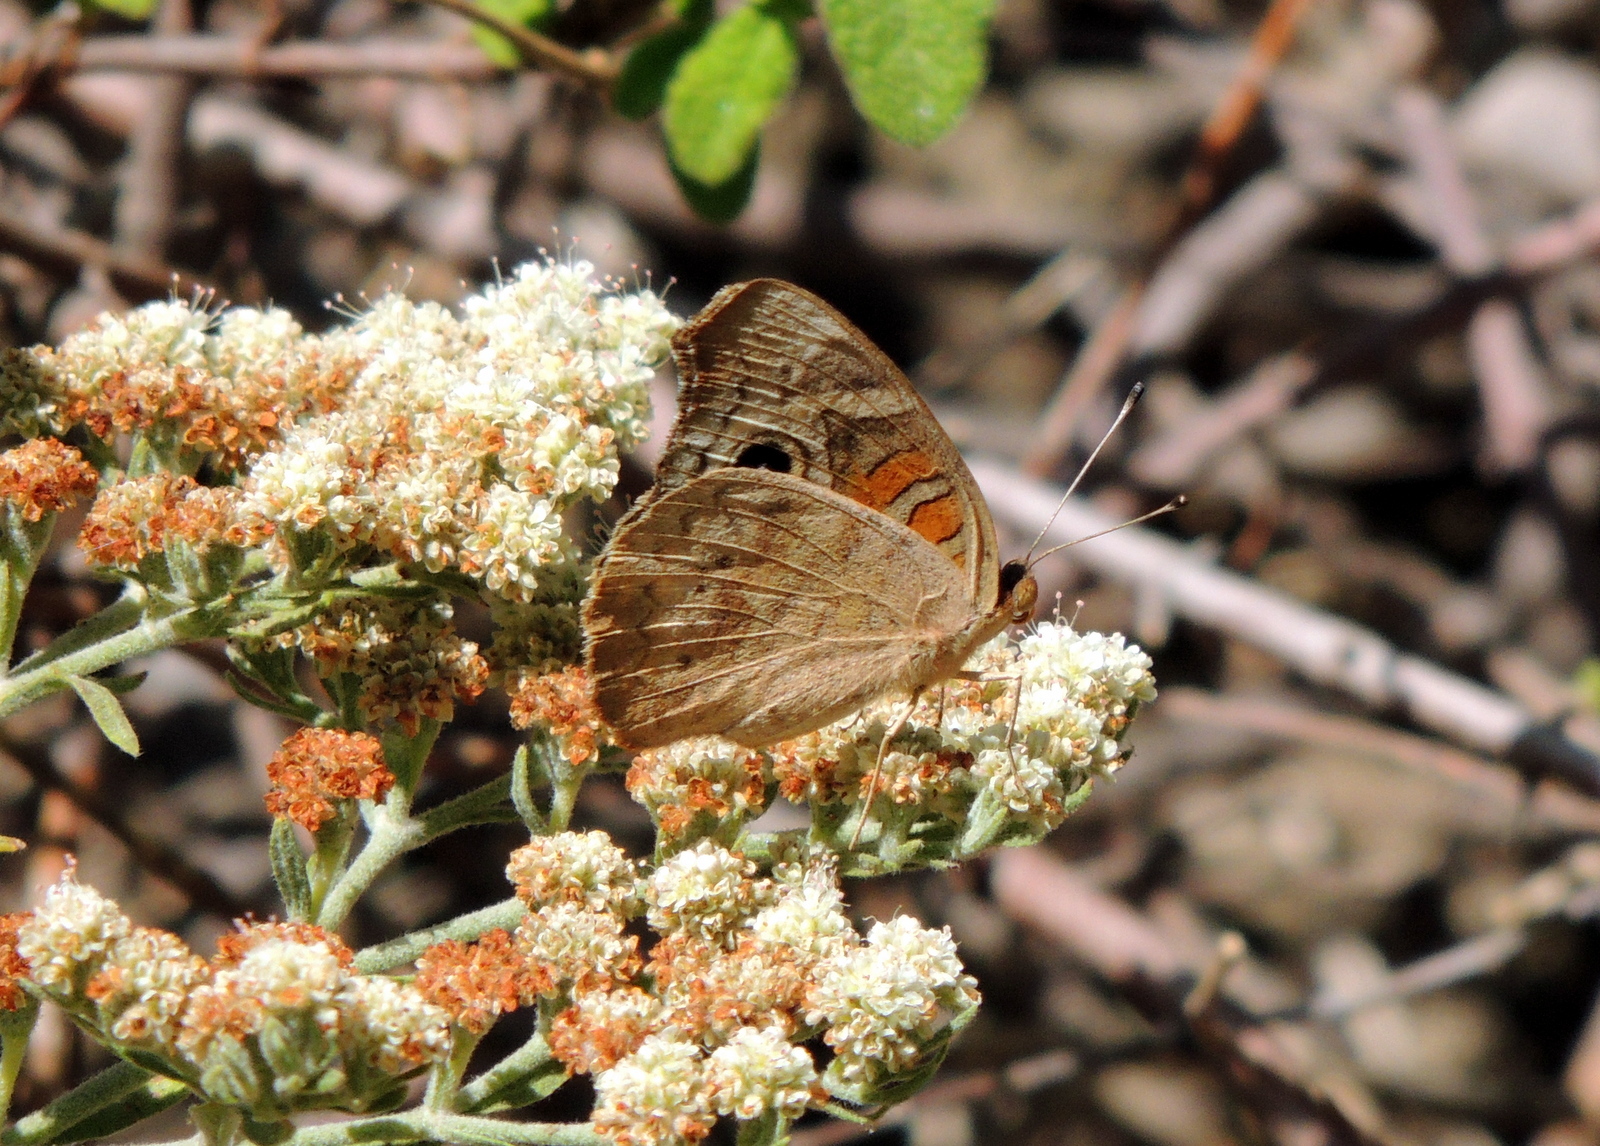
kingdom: Animalia
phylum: Arthropoda
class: Insecta
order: Lepidoptera
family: Nymphalidae
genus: Junonia
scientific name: Junonia grisea
